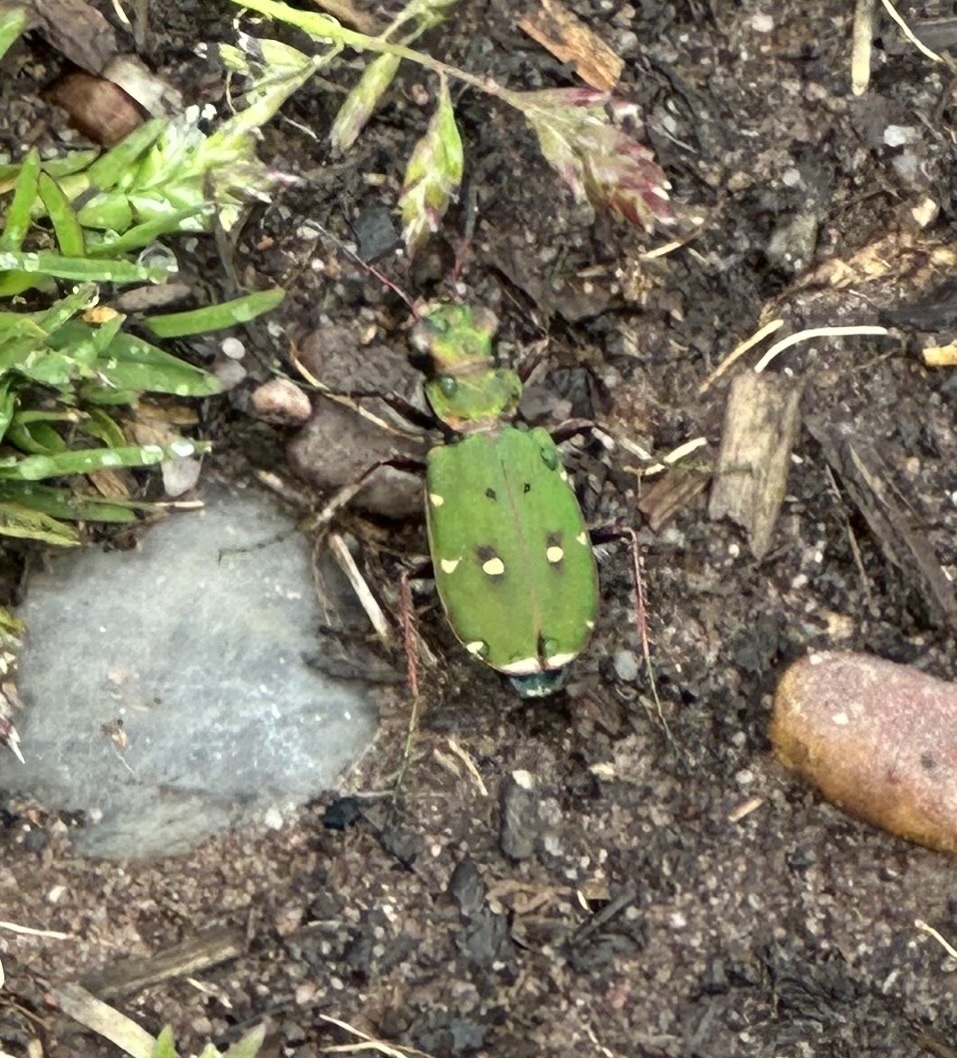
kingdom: Animalia
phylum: Arthropoda
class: Insecta
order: Coleoptera
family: Carabidae
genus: Cicindela
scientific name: Cicindela campestris
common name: Common tiger beetle
